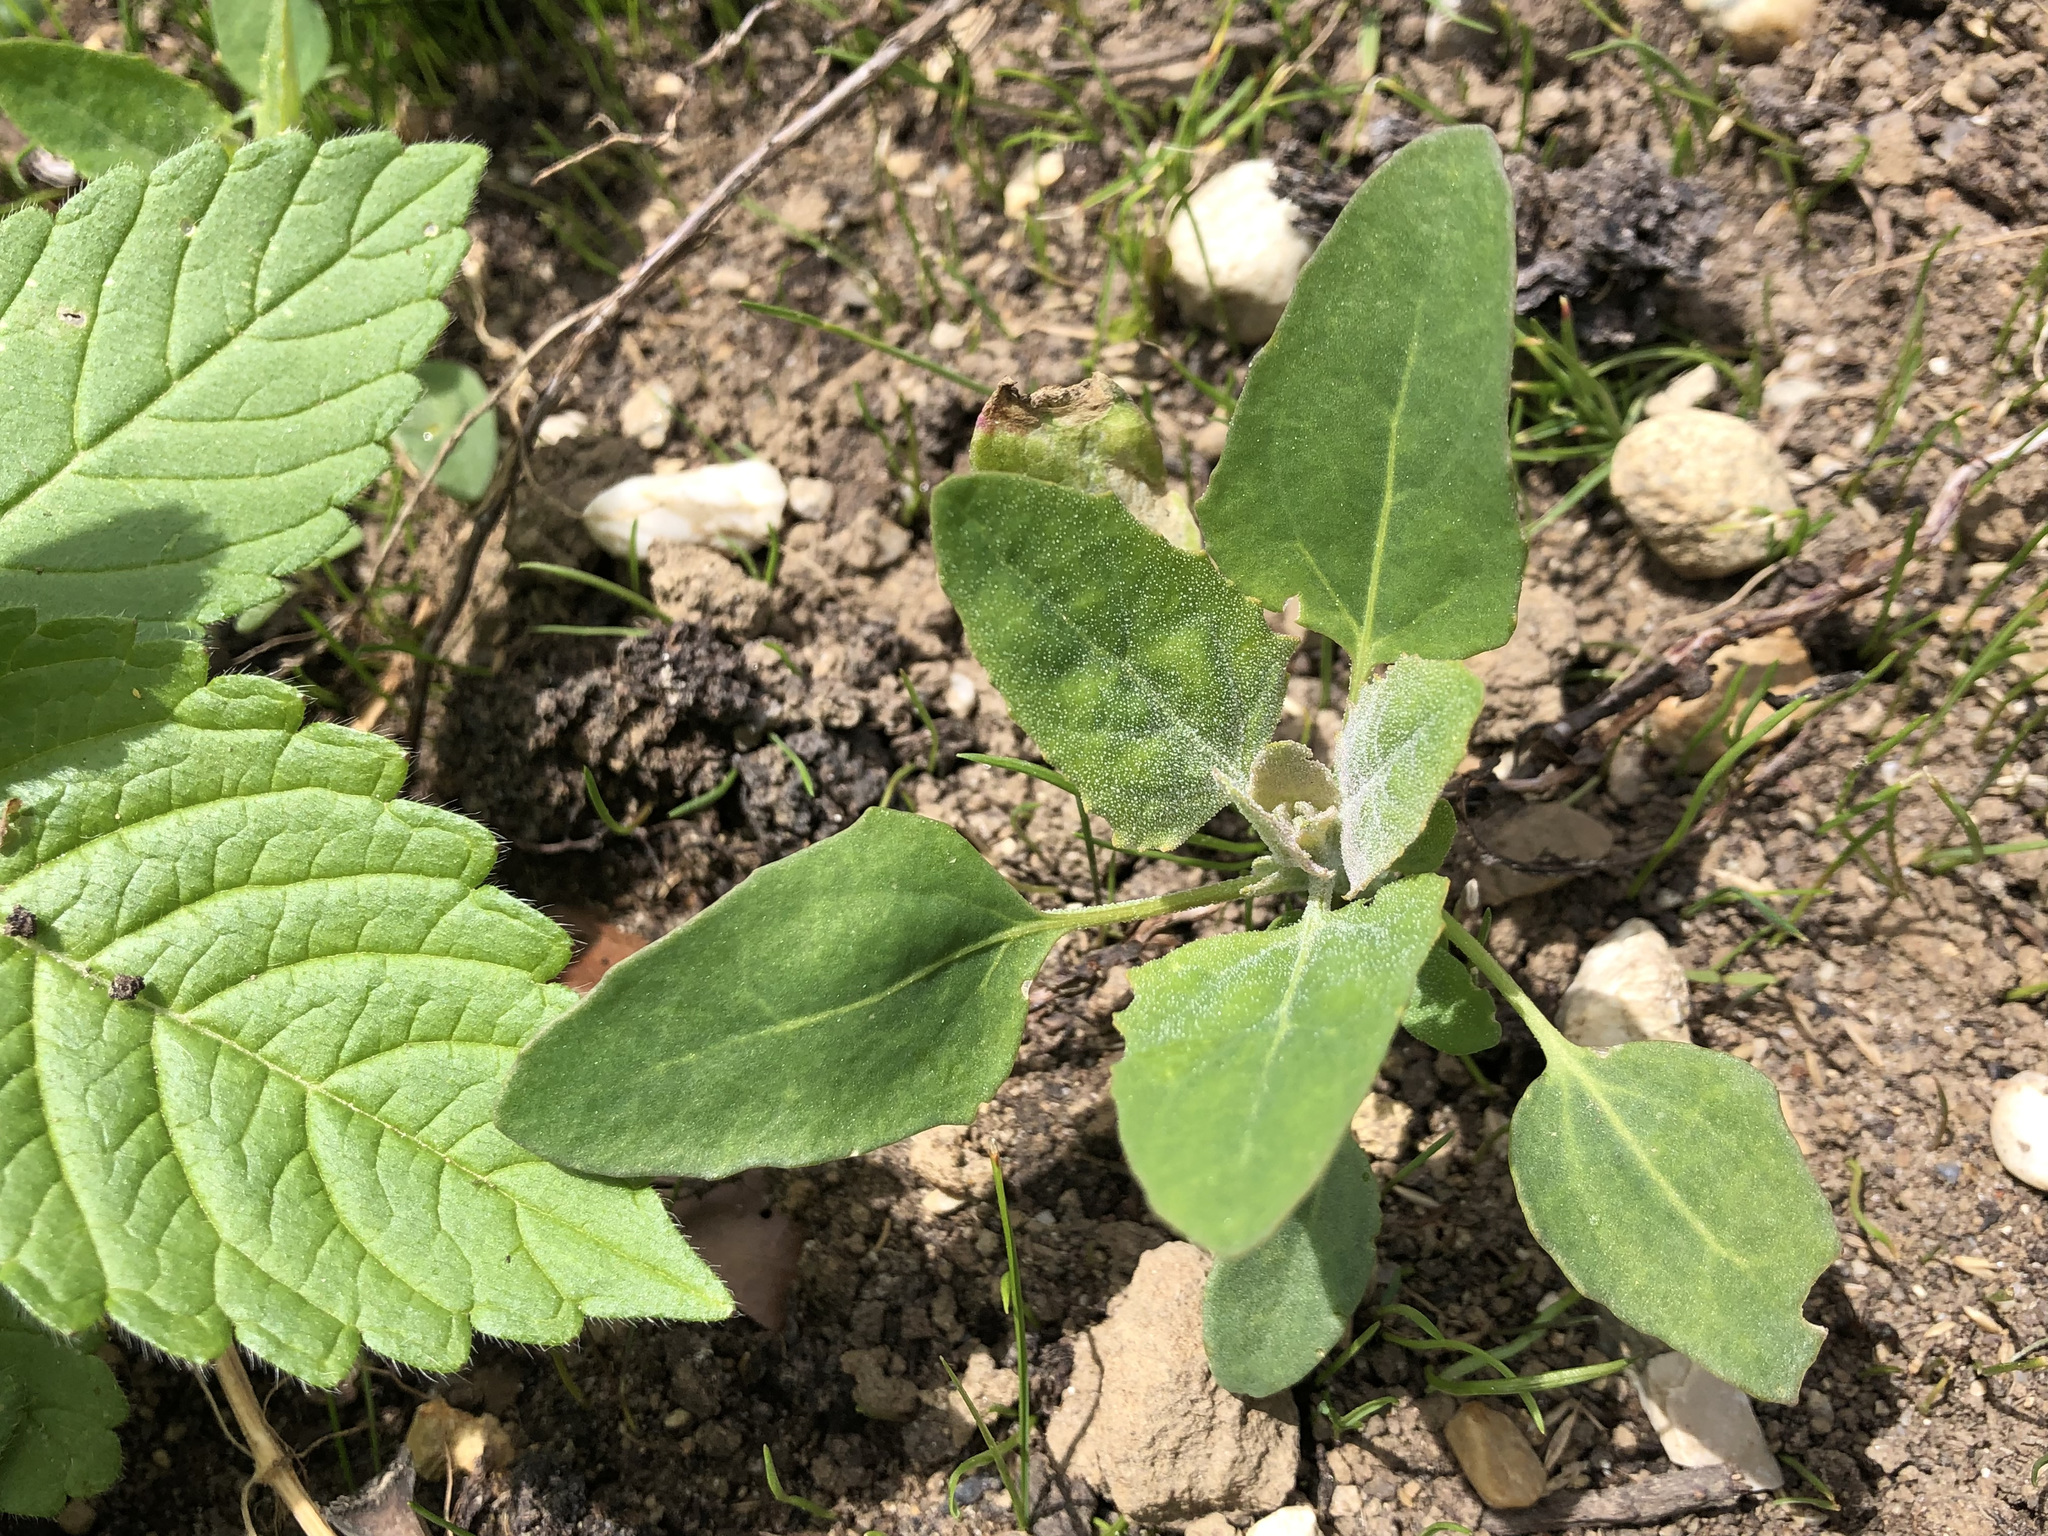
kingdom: Plantae
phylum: Tracheophyta
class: Magnoliopsida
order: Caryophyllales
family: Amaranthaceae
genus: Chenopodium
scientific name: Chenopodium album
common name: Fat-hen
